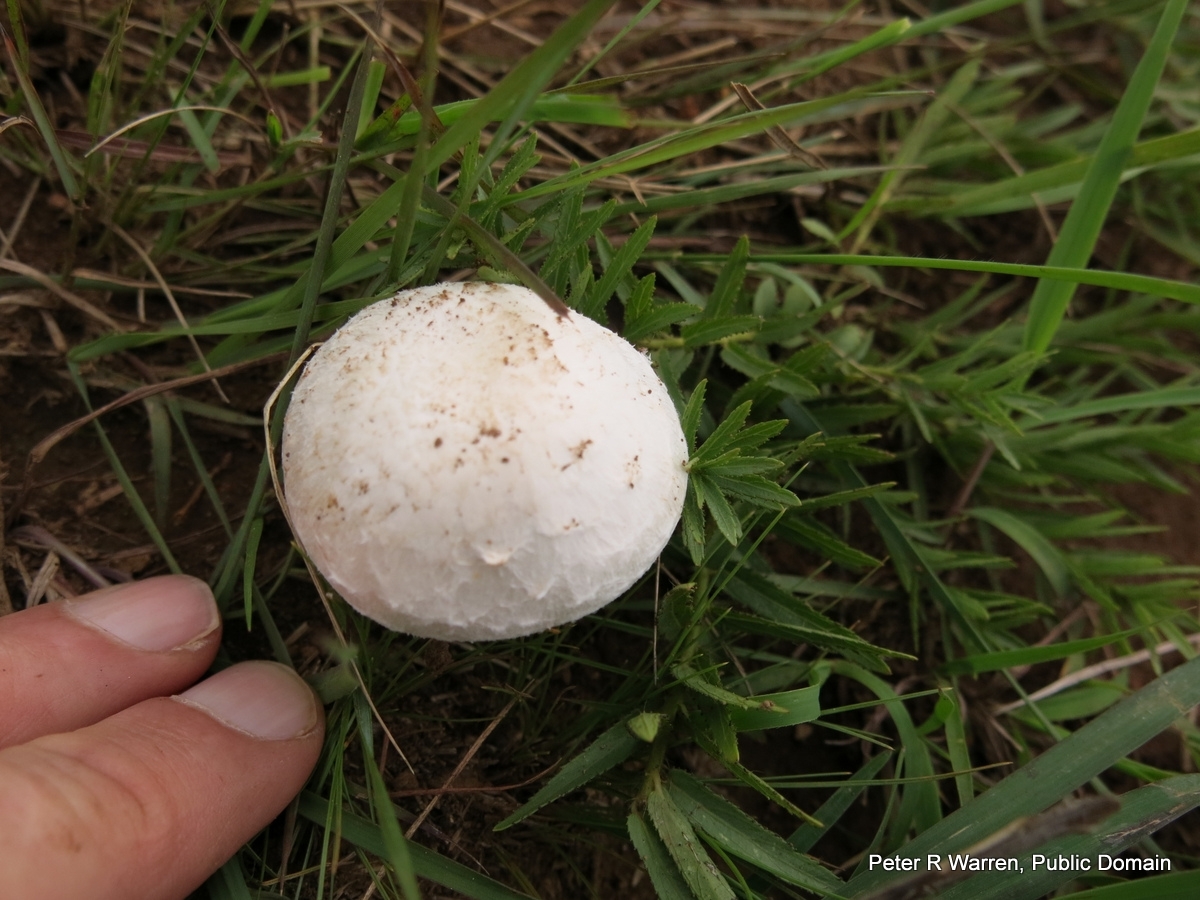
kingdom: Fungi
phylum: Basidiomycota
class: Agaricomycetes
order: Agaricales
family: Agaricaceae
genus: Agaricus
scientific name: Agaricus campestris
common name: Field mushroom
